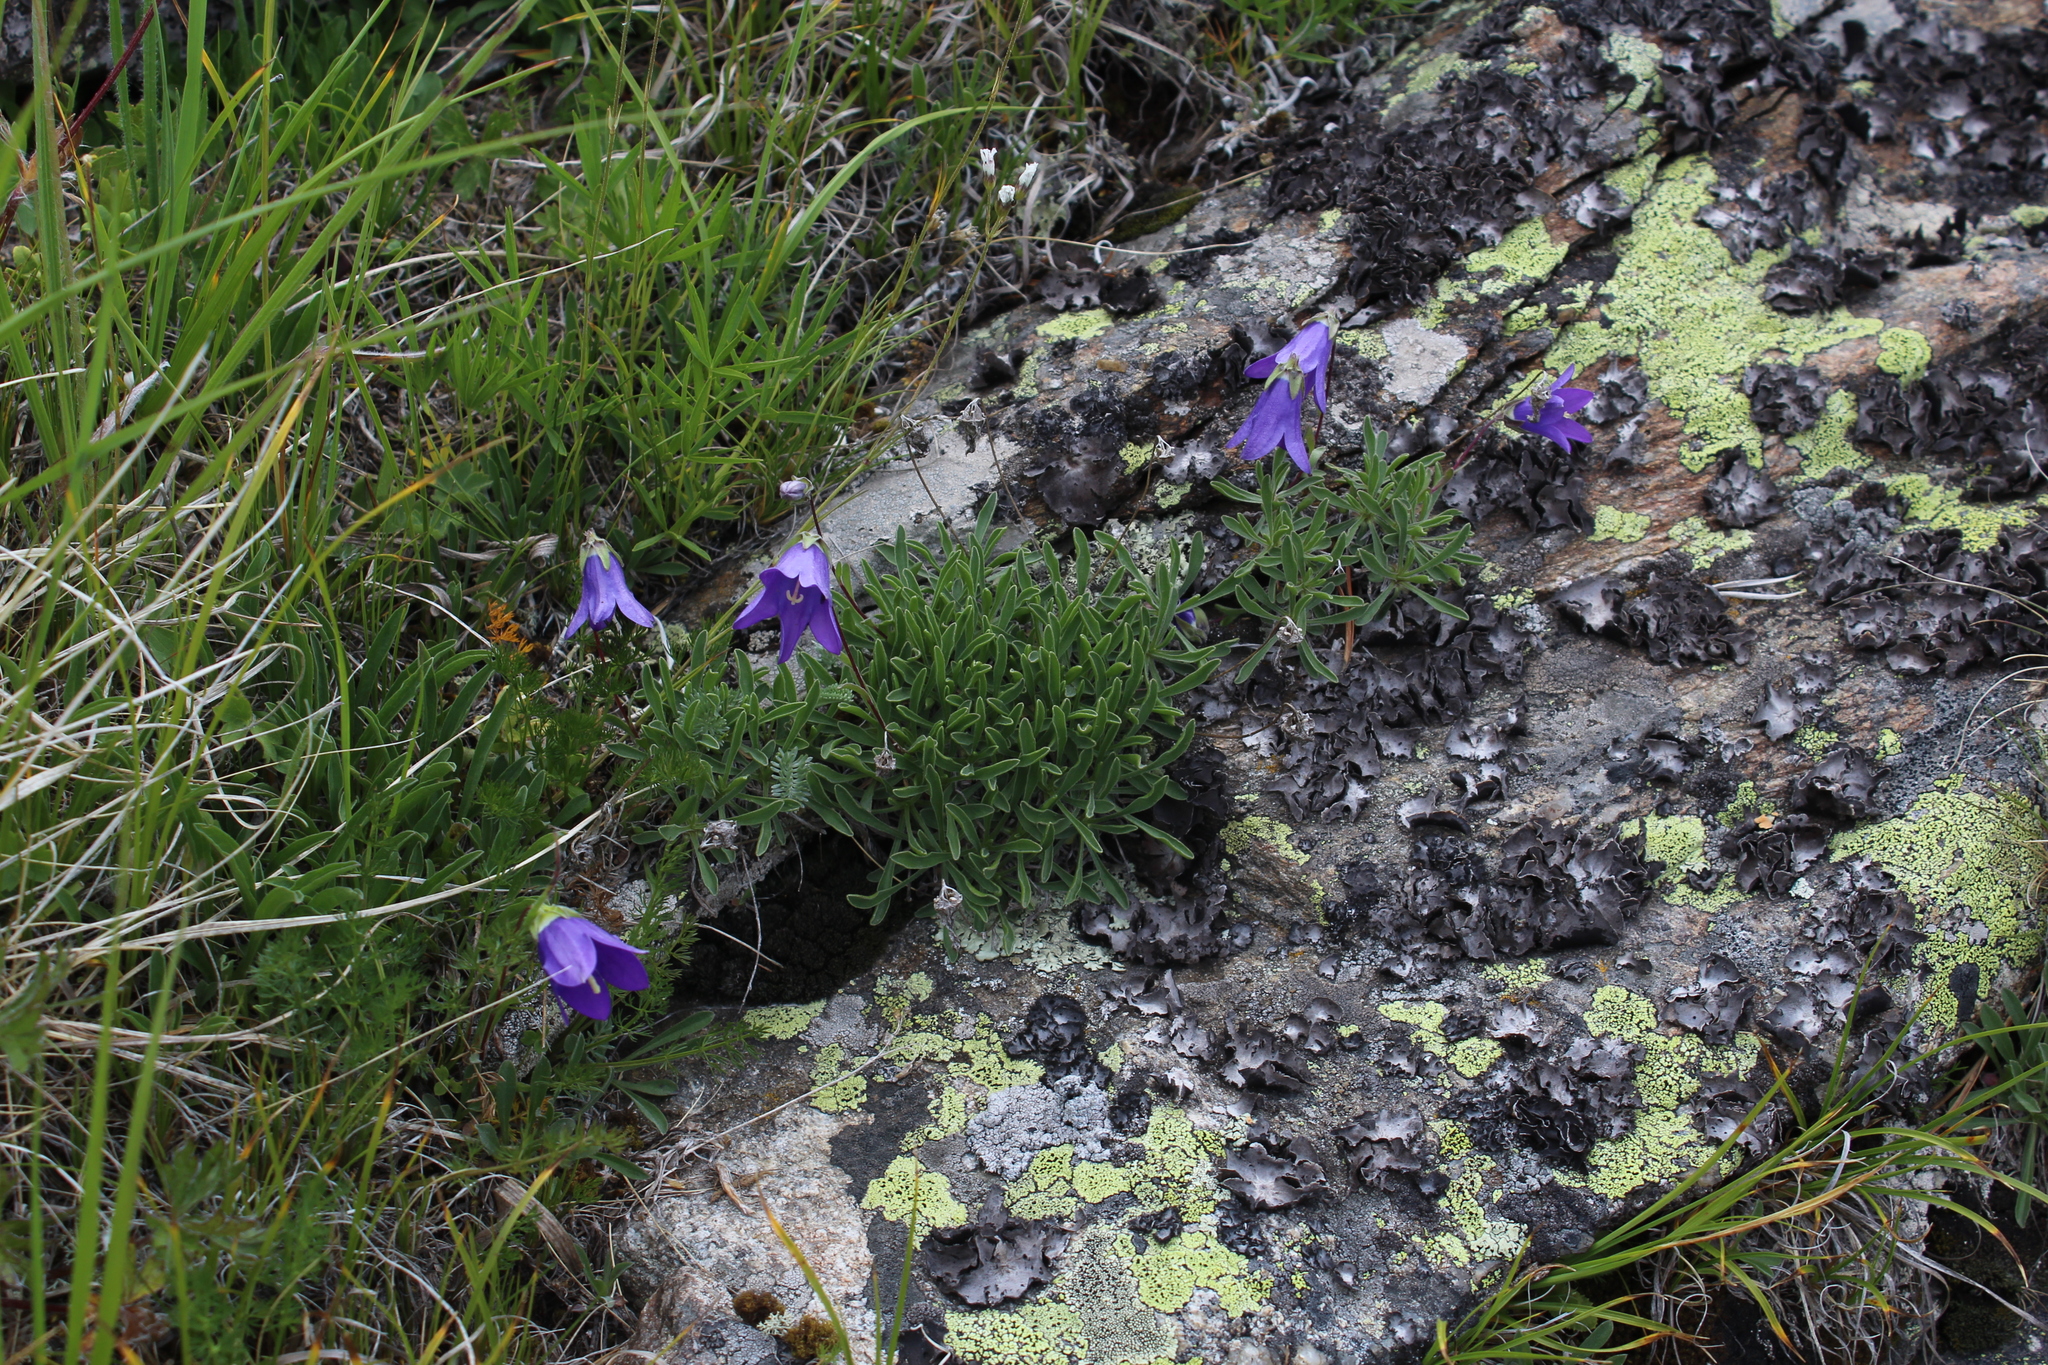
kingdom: Plantae
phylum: Tracheophyta
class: Magnoliopsida
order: Asterales
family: Campanulaceae
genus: Campanula
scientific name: Campanula saxifraga
